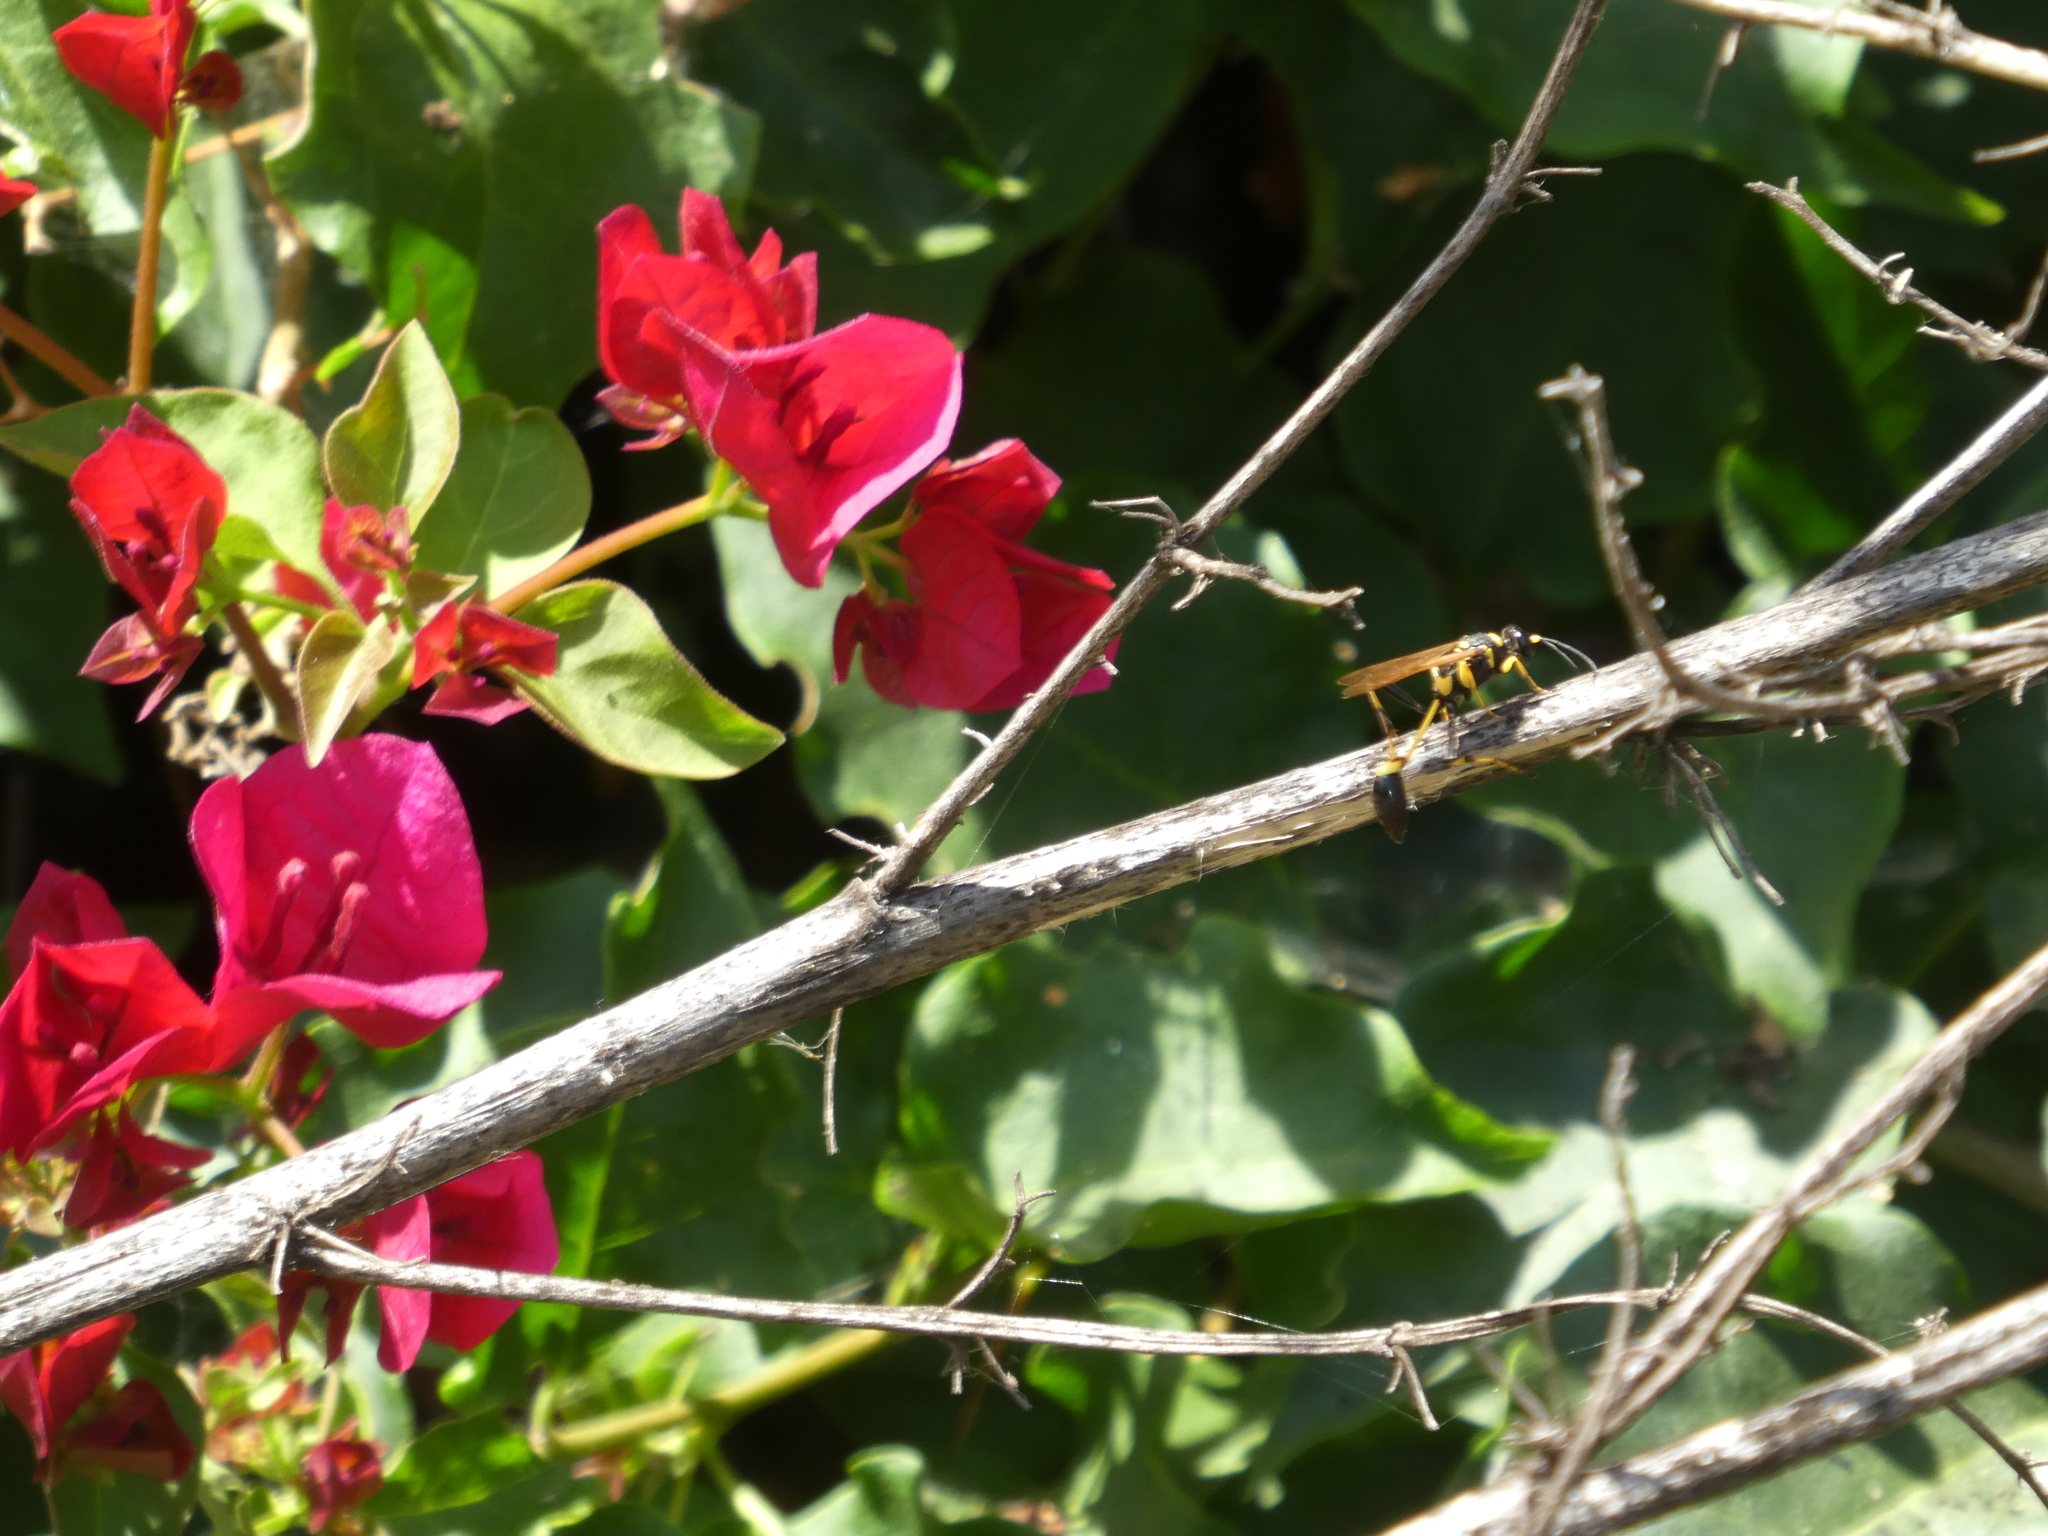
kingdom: Animalia
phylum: Arthropoda
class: Insecta
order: Hymenoptera
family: Sphecidae
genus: Sceliphron
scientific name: Sceliphron caementarium
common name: Mud dauber
